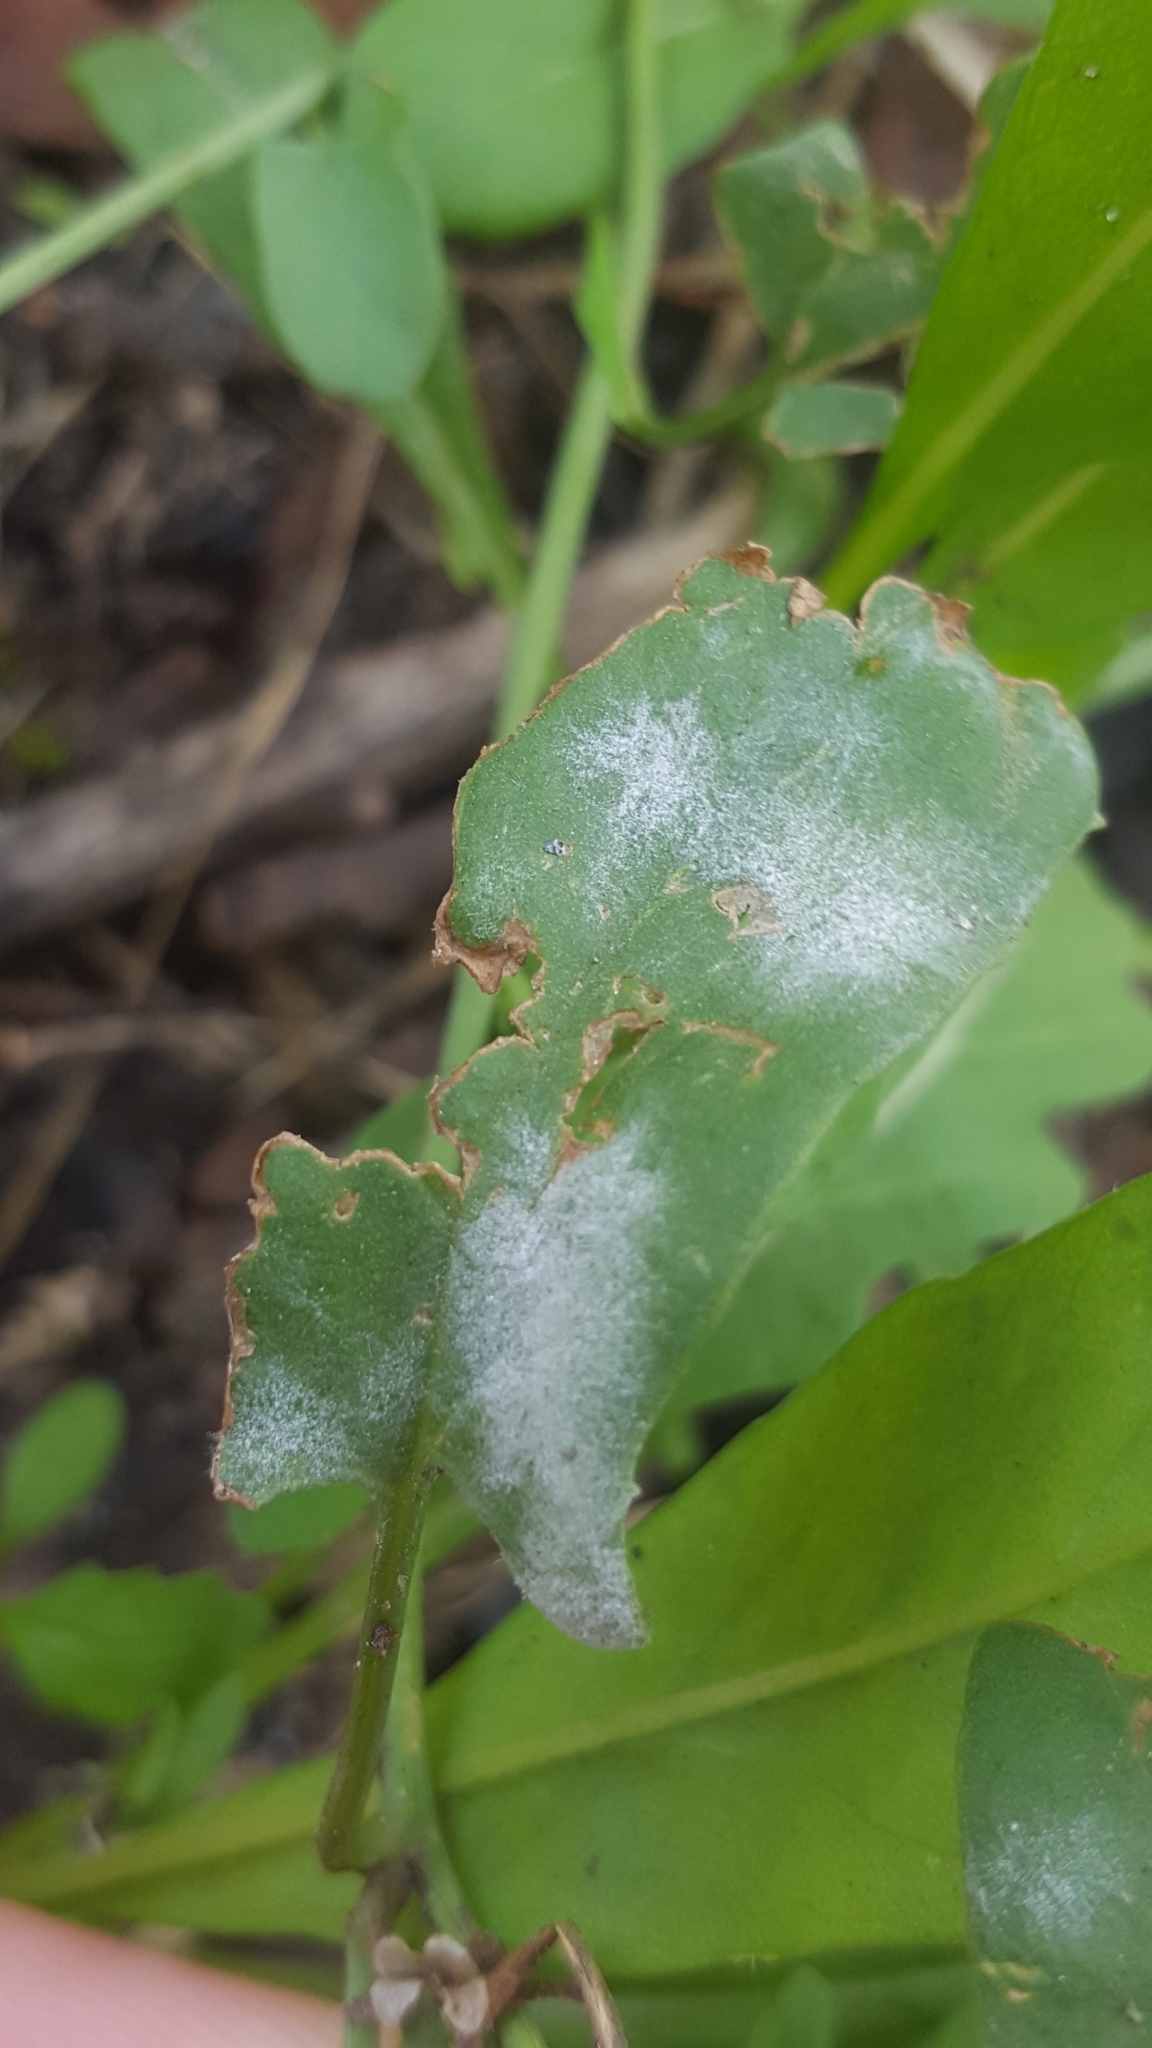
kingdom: Fungi
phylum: Ascomycota
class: Leotiomycetes
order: Helotiales
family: Erysiphaceae
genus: Erysiphe
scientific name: Erysiphe convolvuli
